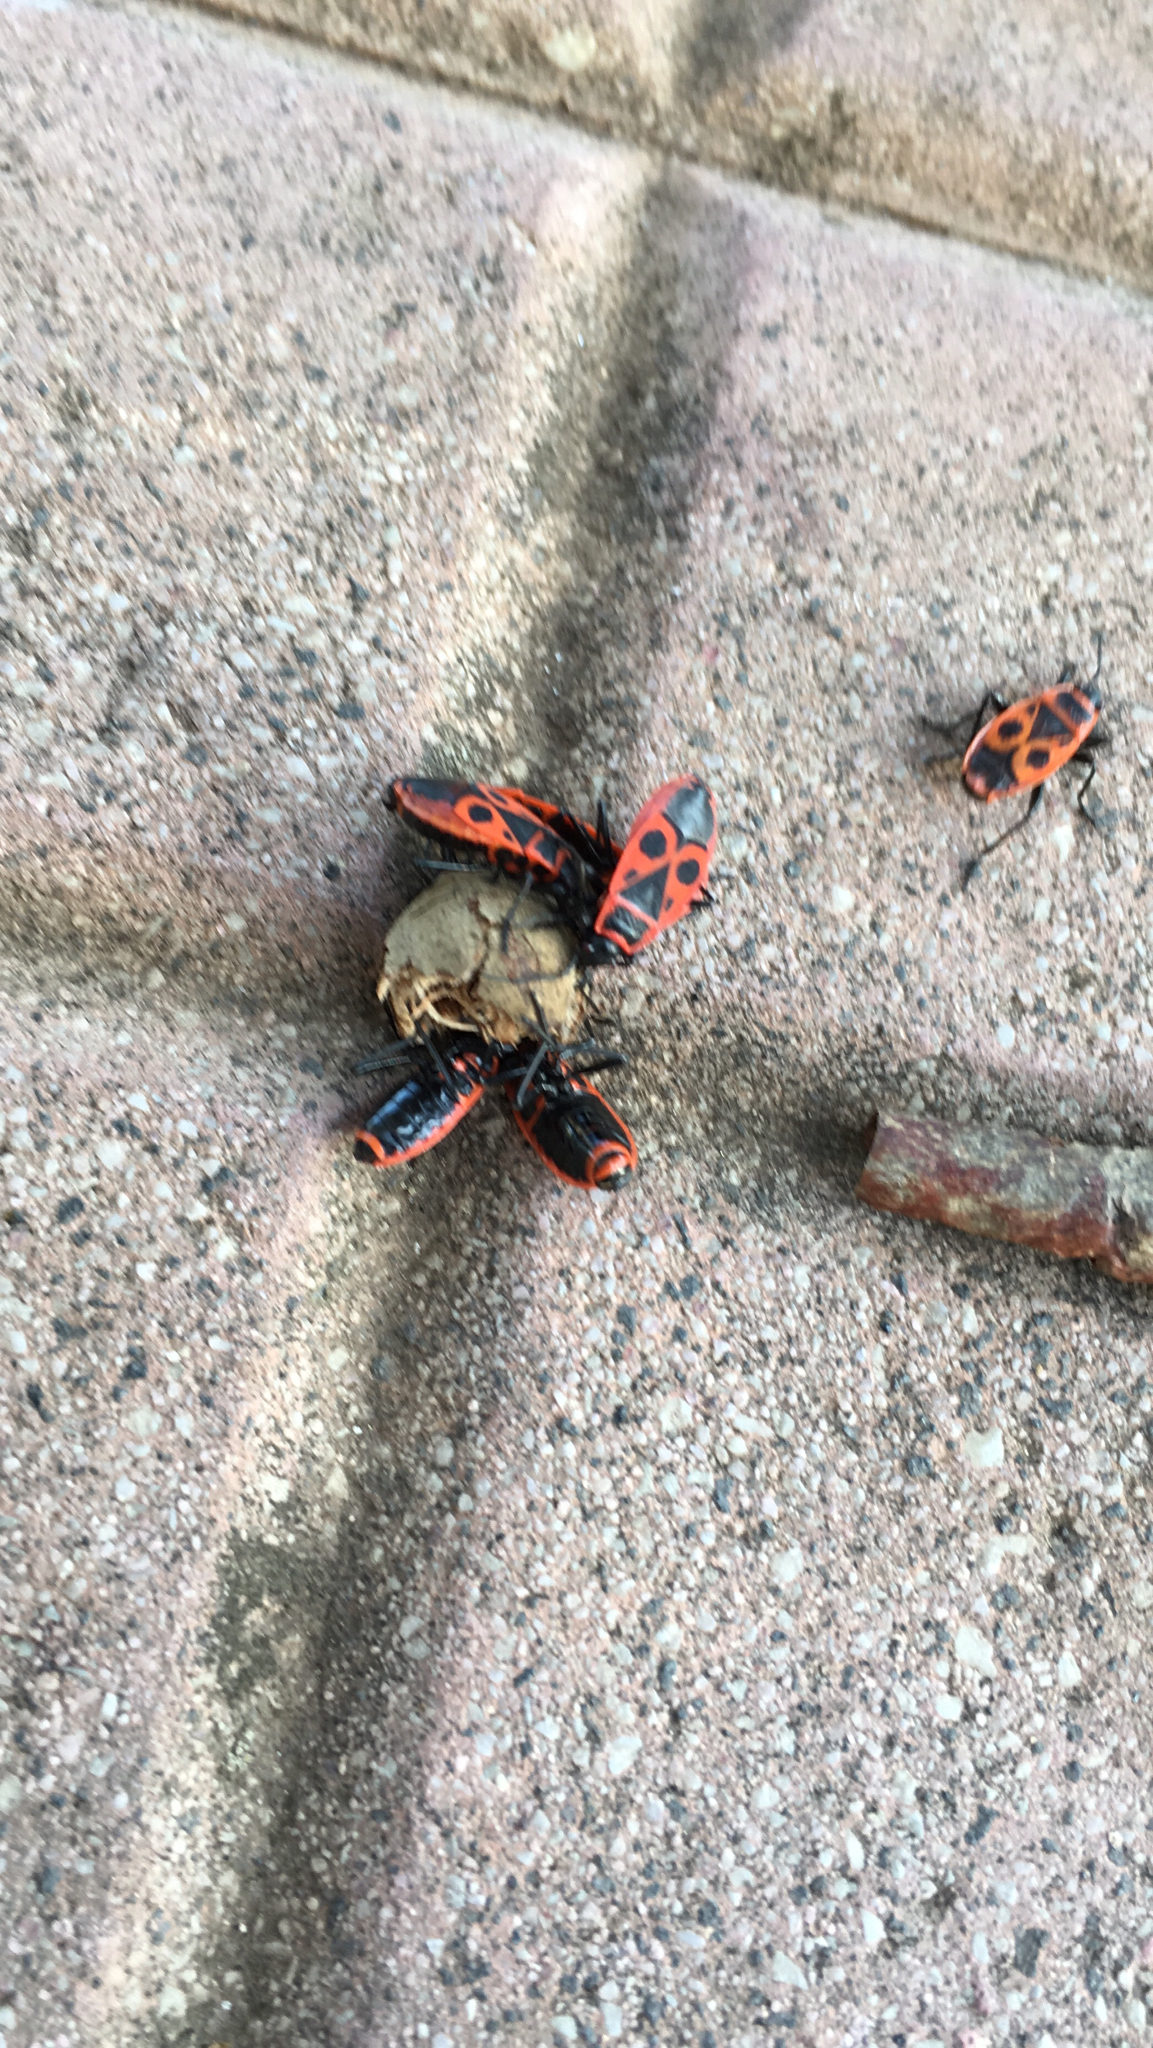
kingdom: Animalia
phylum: Arthropoda
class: Insecta
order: Hemiptera
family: Pyrrhocoridae
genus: Pyrrhocoris
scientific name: Pyrrhocoris apterus
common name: Firebug
